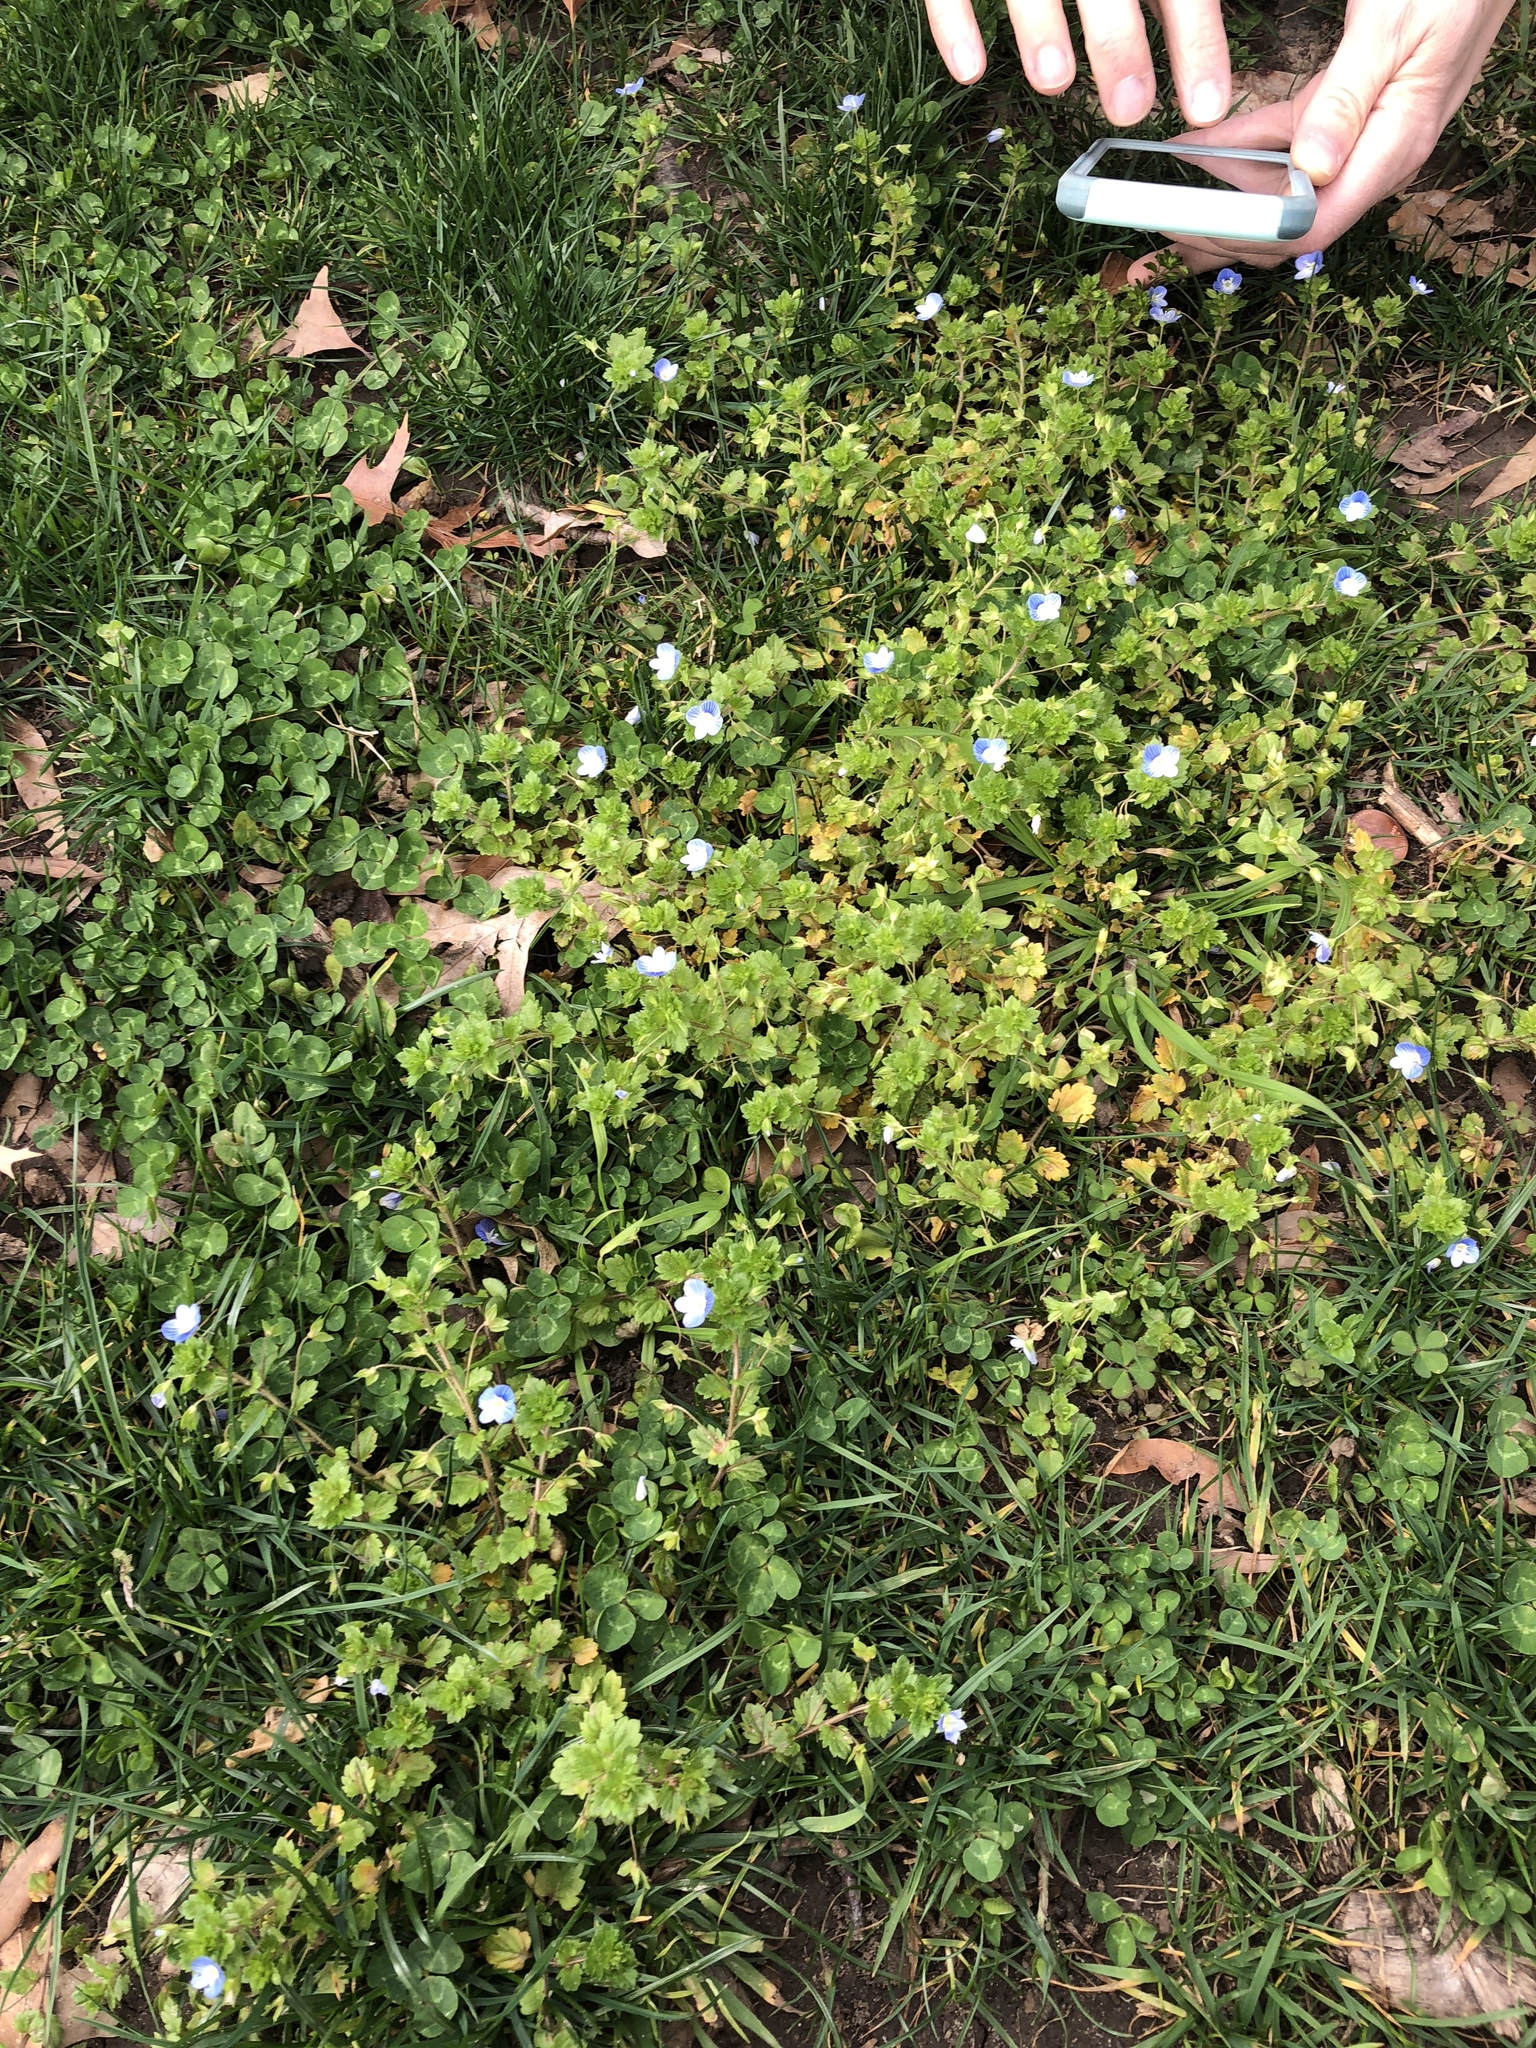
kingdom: Plantae
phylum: Tracheophyta
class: Magnoliopsida
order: Lamiales
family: Plantaginaceae
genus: Veronica
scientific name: Veronica persica
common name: Common field-speedwell
